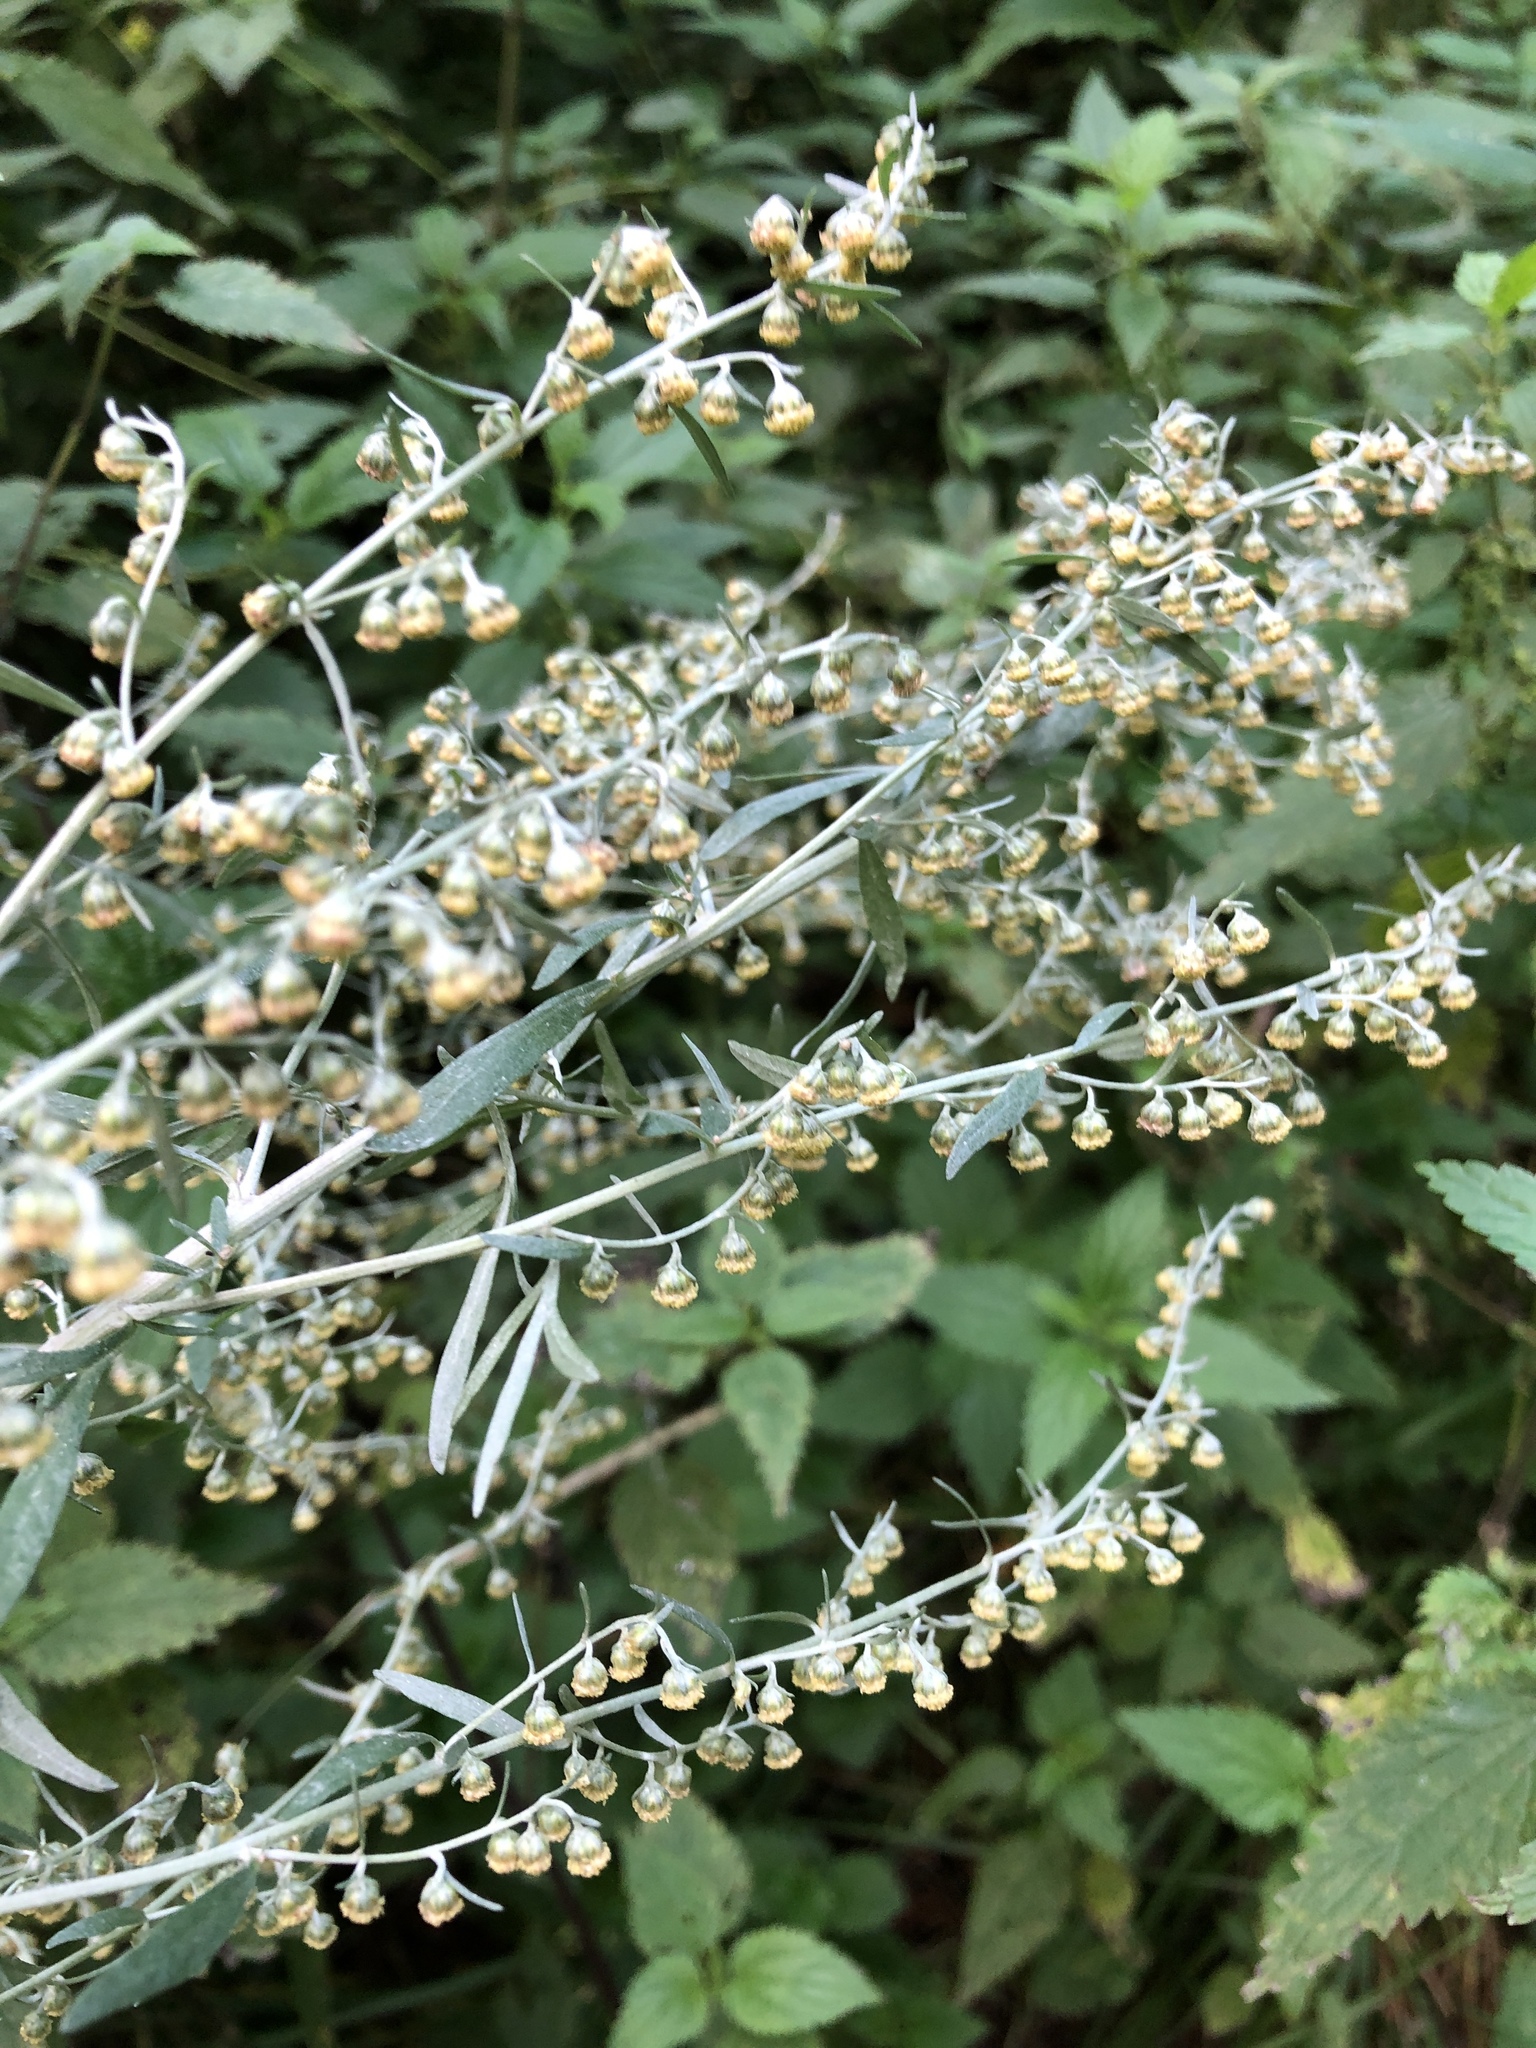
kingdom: Plantae
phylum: Tracheophyta
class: Magnoliopsida
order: Asterales
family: Asteraceae
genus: Artemisia
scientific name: Artemisia absinthium
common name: Wormwood
